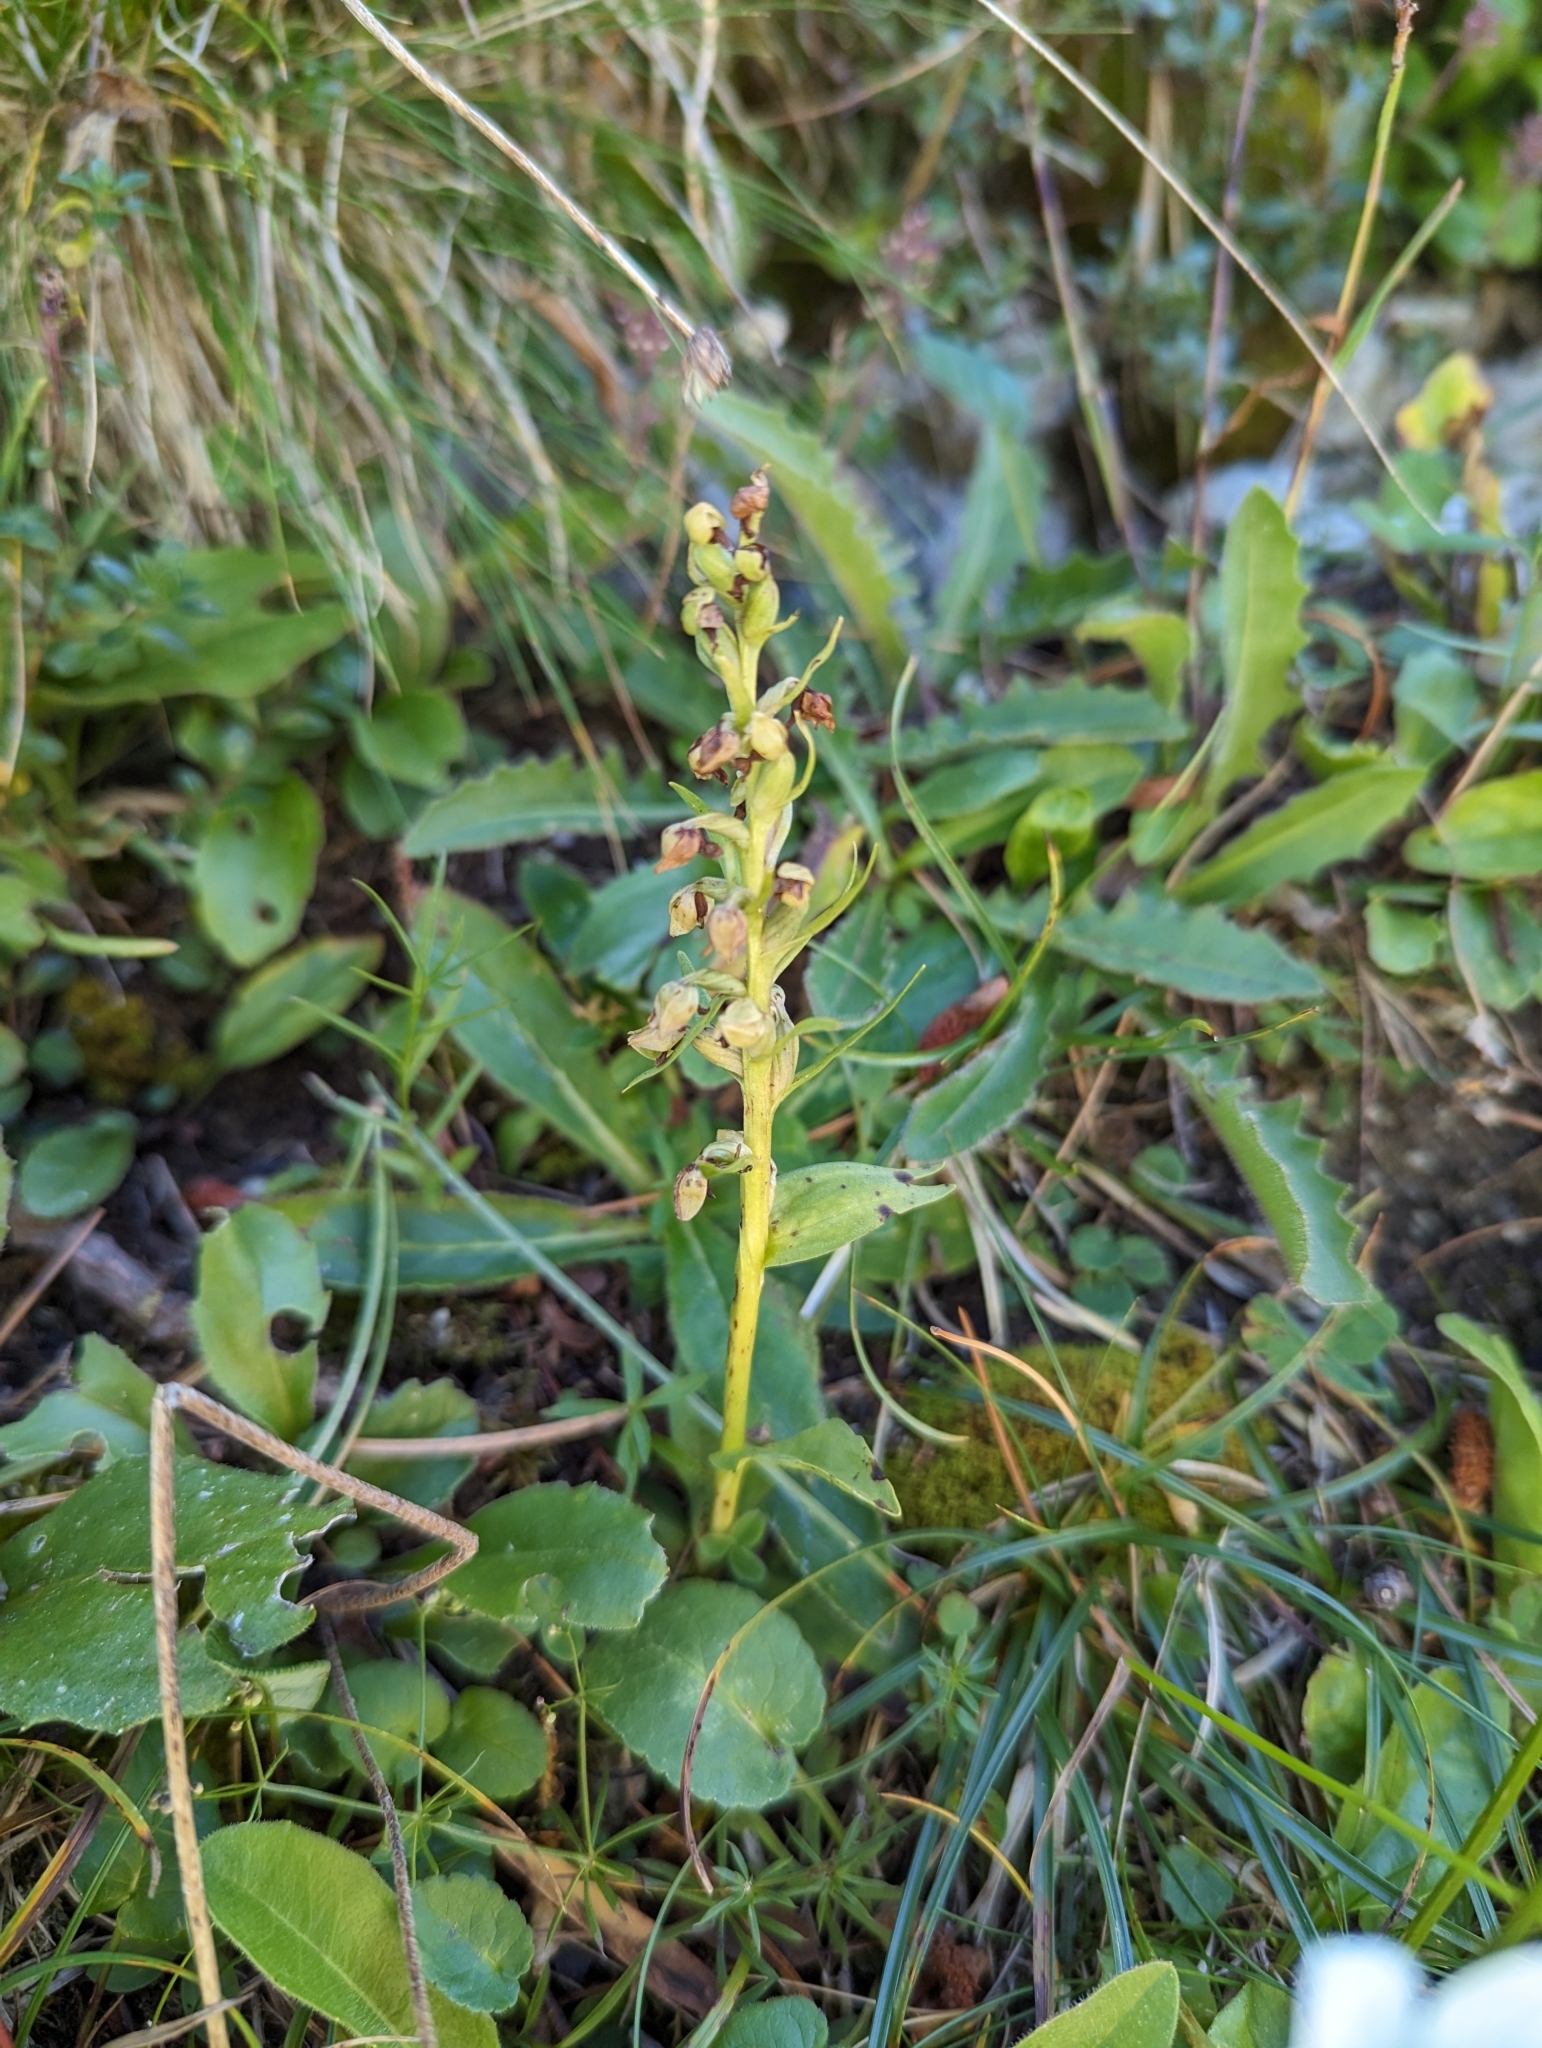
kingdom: Plantae
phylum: Tracheophyta
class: Liliopsida
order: Asparagales
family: Orchidaceae
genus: Dactylorhiza
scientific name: Dactylorhiza viridis
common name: Longbract frog orchid
